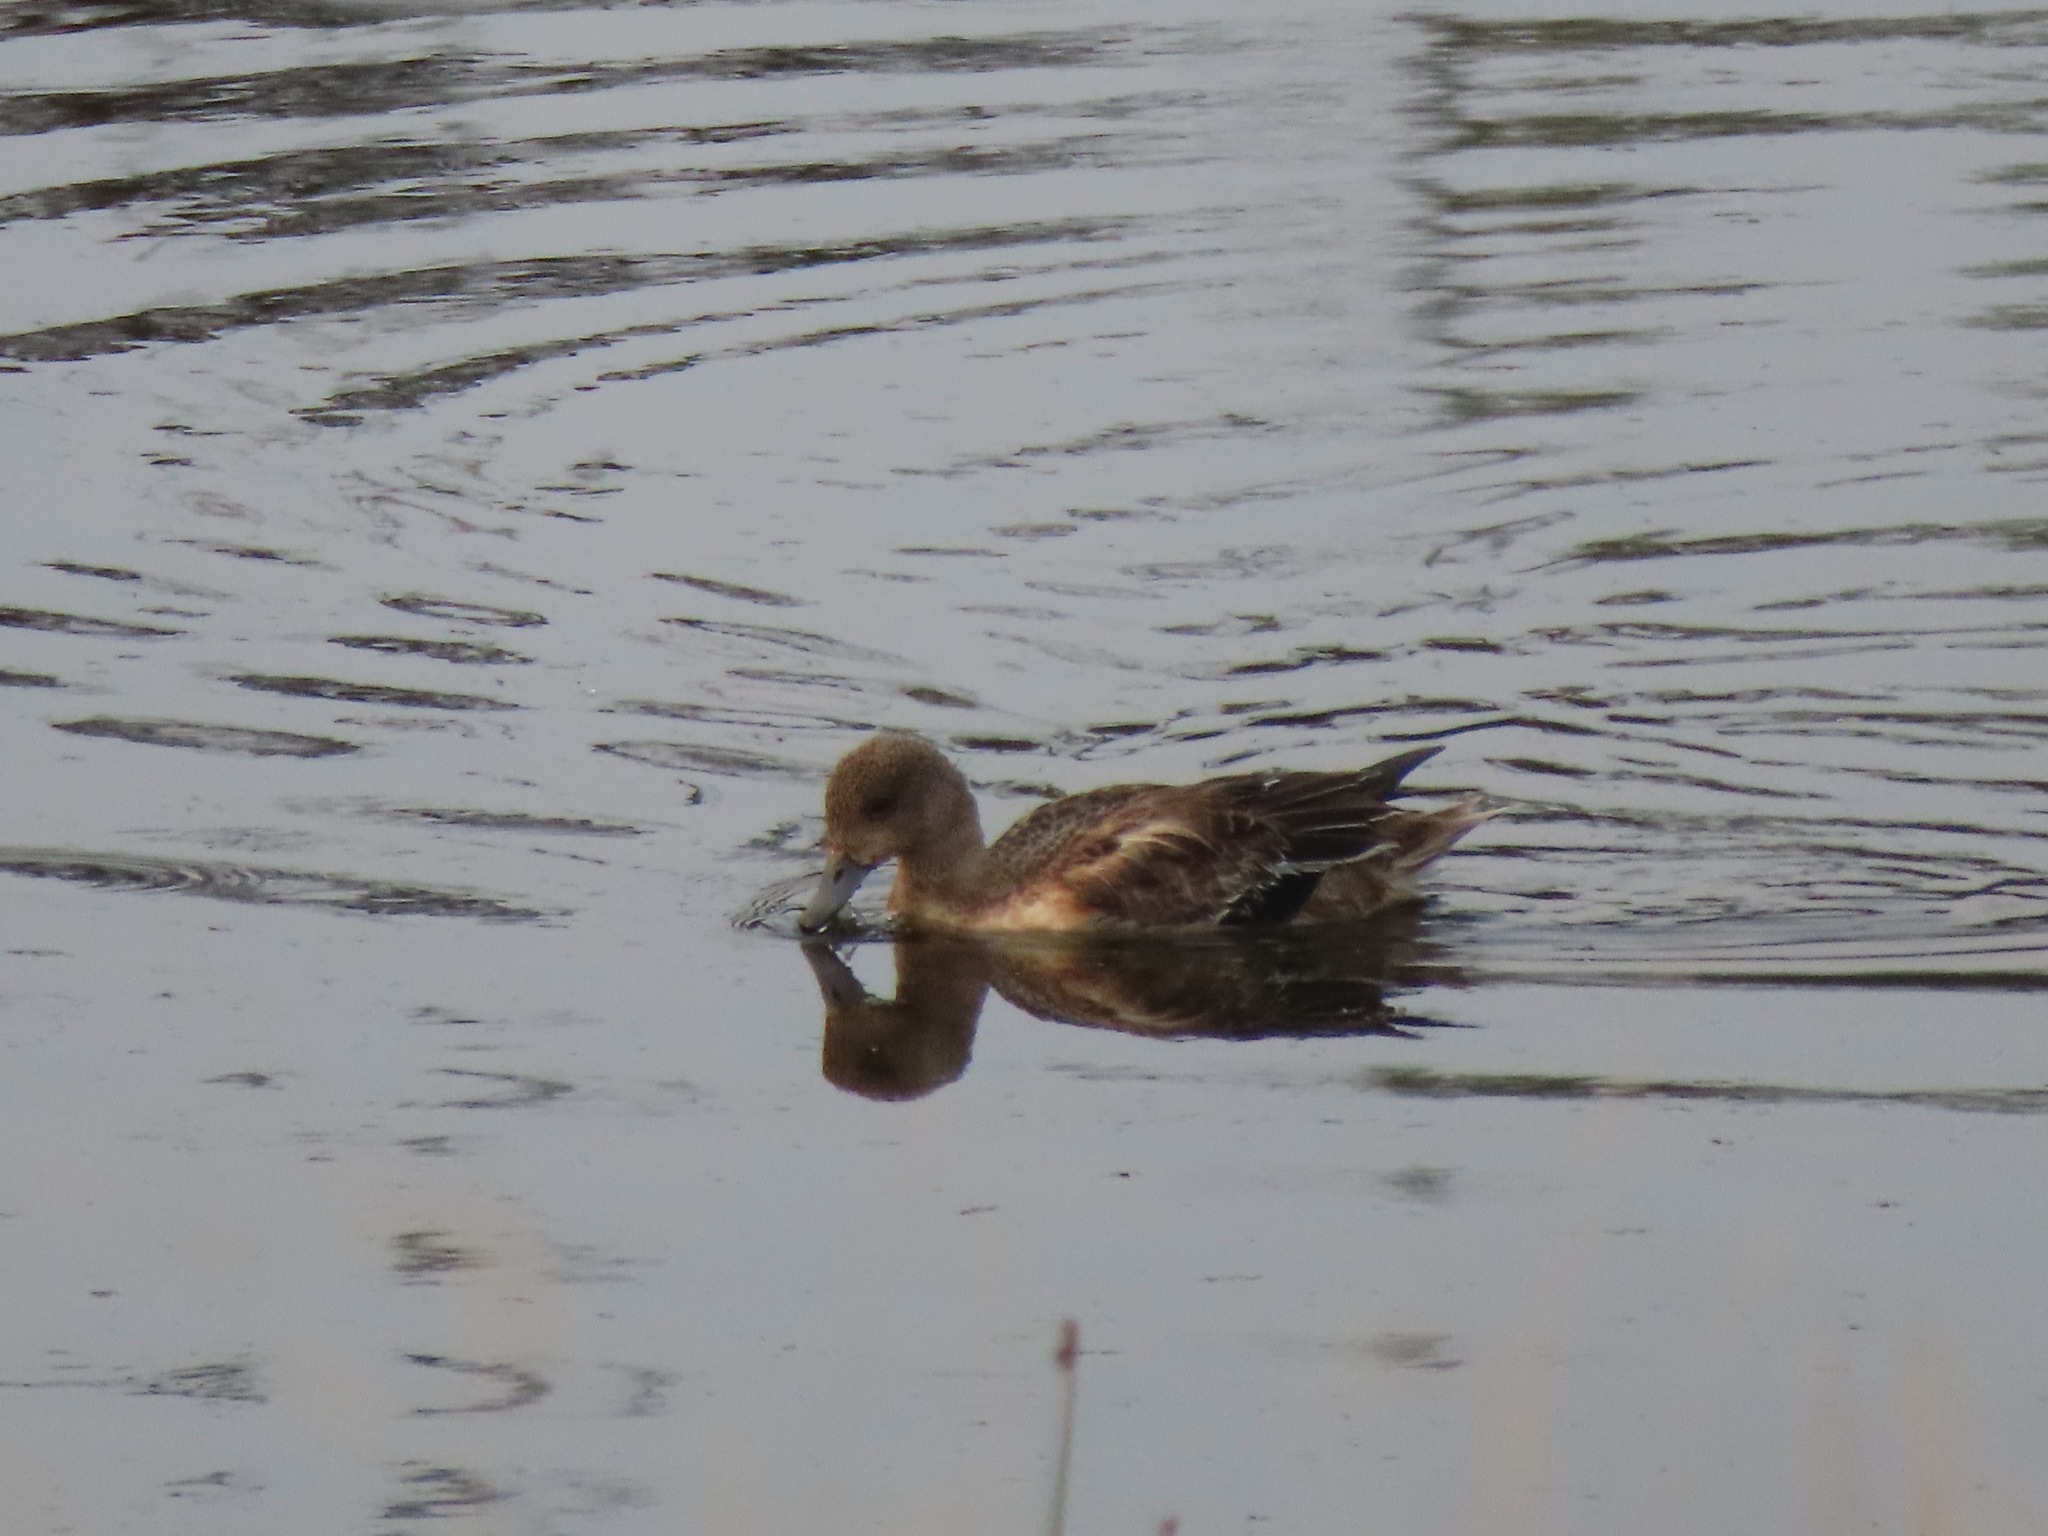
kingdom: Animalia
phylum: Chordata
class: Aves
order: Anseriformes
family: Anatidae
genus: Mareca
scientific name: Mareca americana
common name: American wigeon
